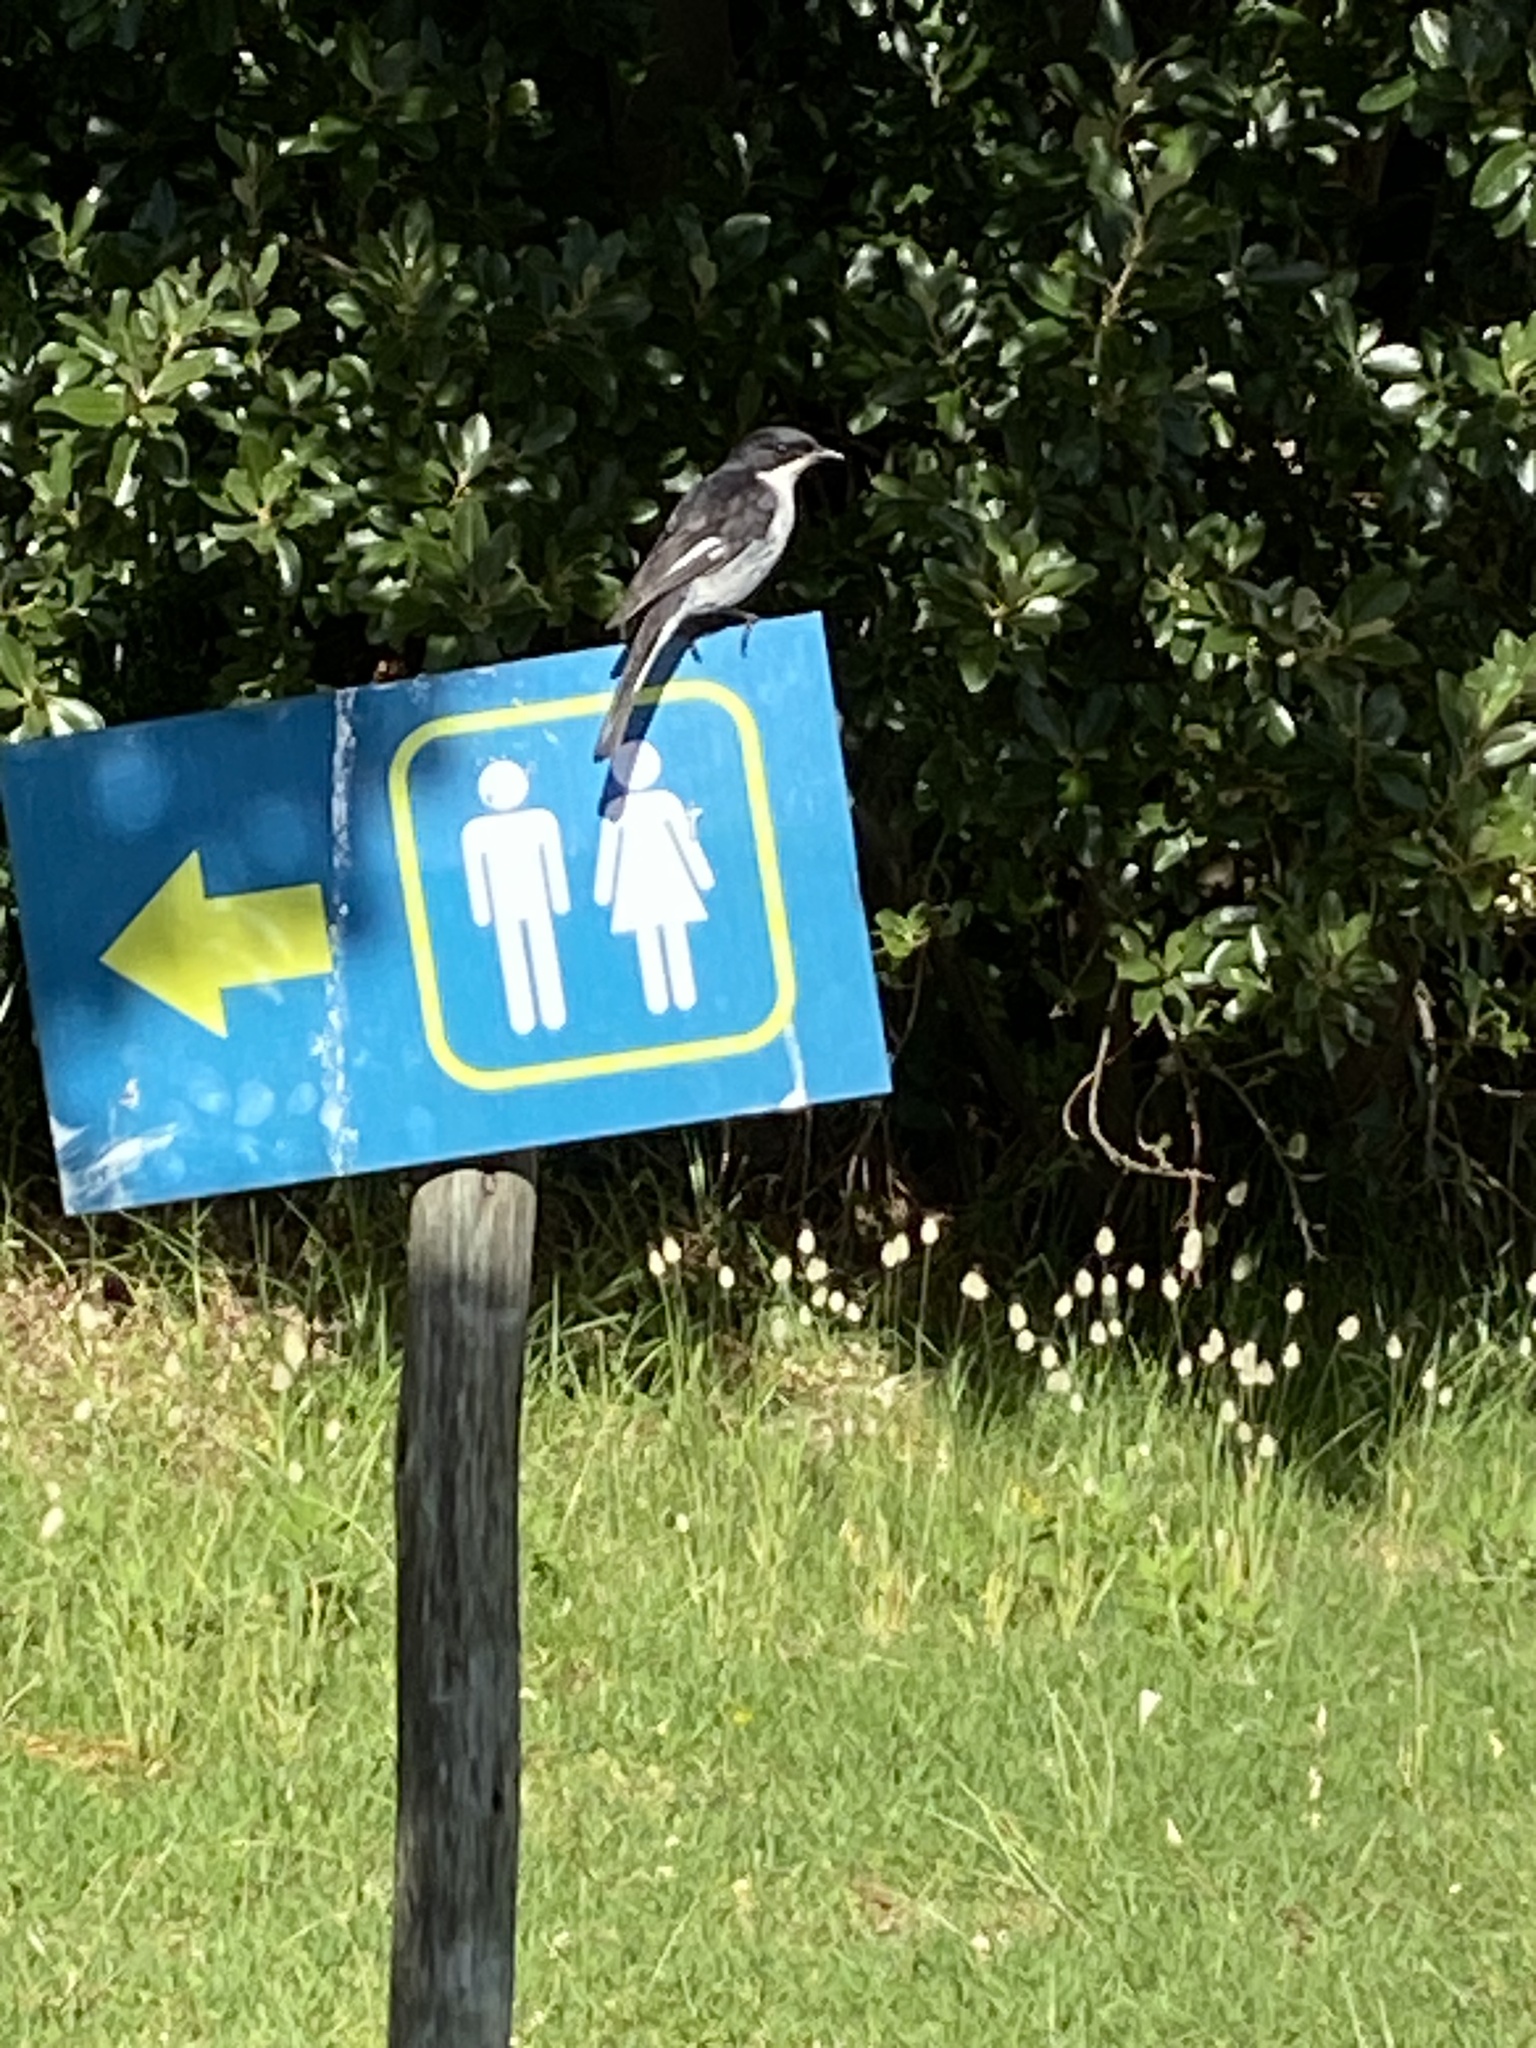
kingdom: Animalia
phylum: Chordata
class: Aves
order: Passeriformes
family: Muscicapidae
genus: Sigelus
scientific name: Sigelus silens
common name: Fiscal flycatcher
